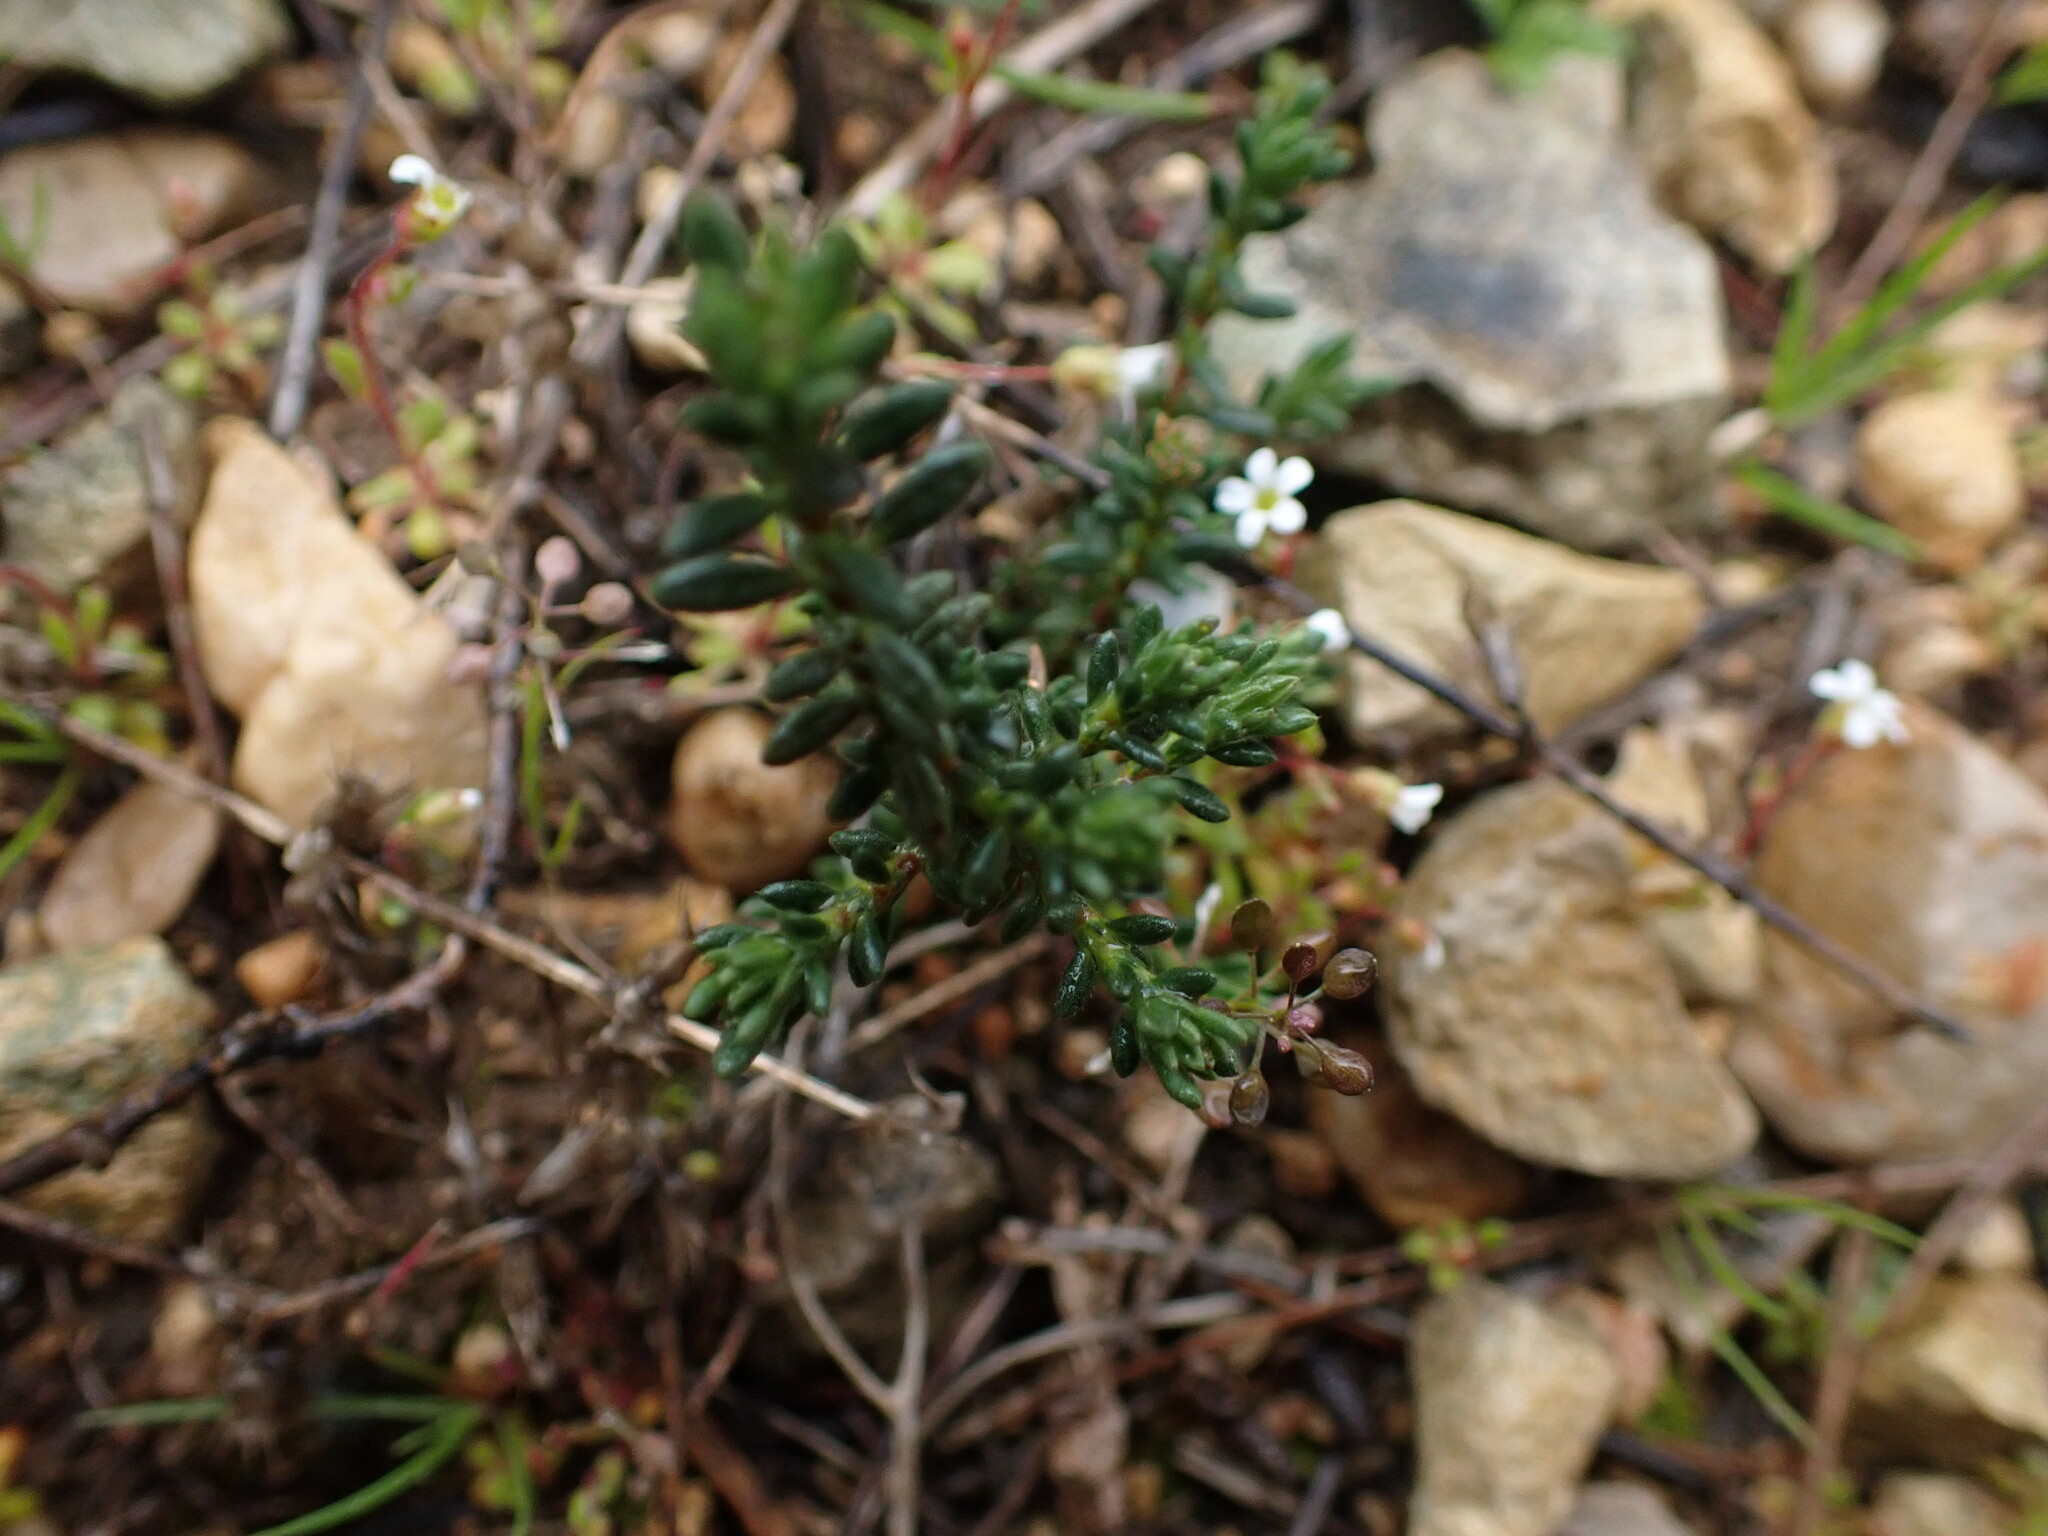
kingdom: Plantae
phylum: Tracheophyta
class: Magnoliopsida
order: Malvales
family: Cistaceae
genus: Fumana
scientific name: Fumana thymifolia
